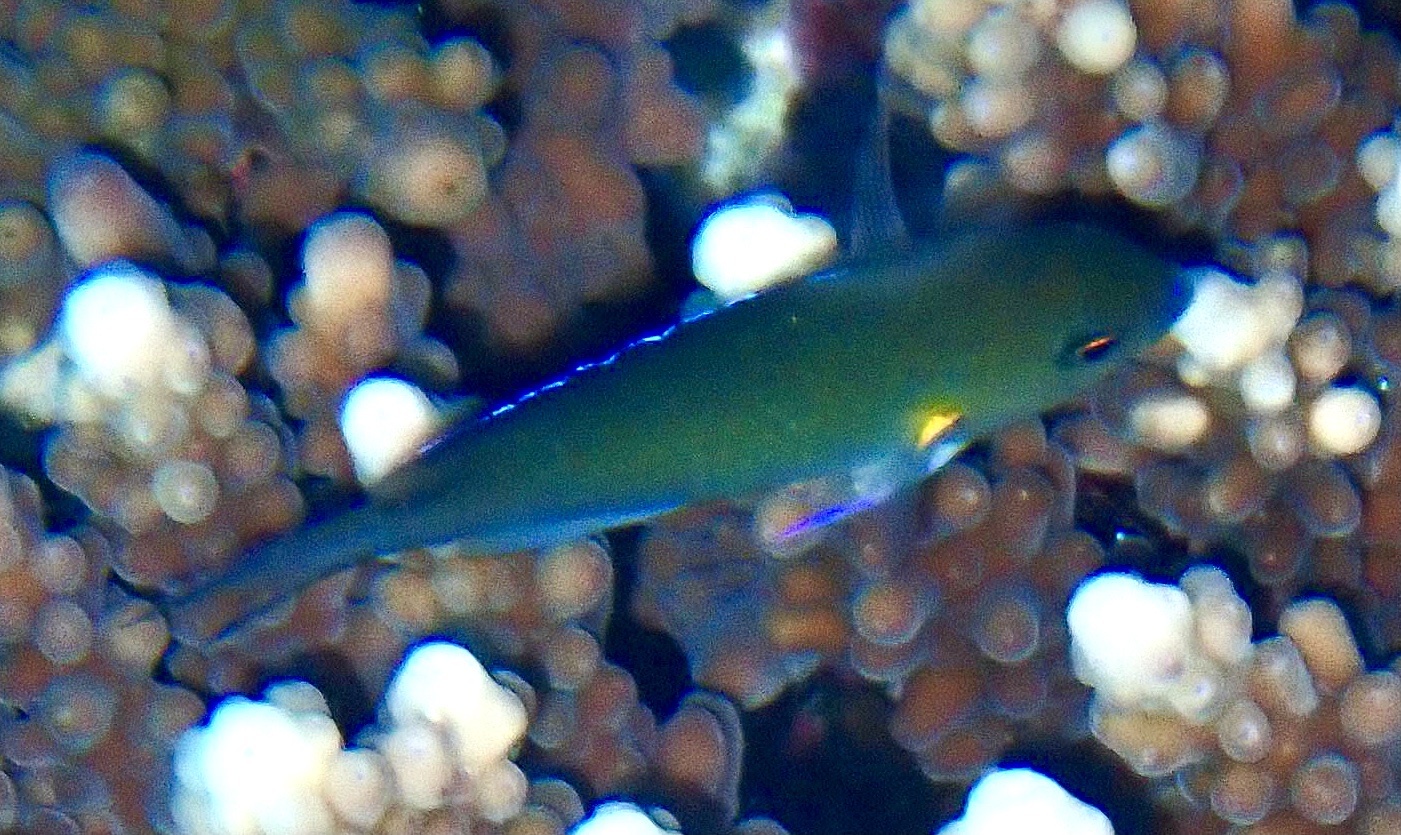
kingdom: Animalia
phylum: Chordata
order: Perciformes
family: Pomacentridae
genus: Chromis
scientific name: Chromis flavaxilla
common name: Arabian chromis
